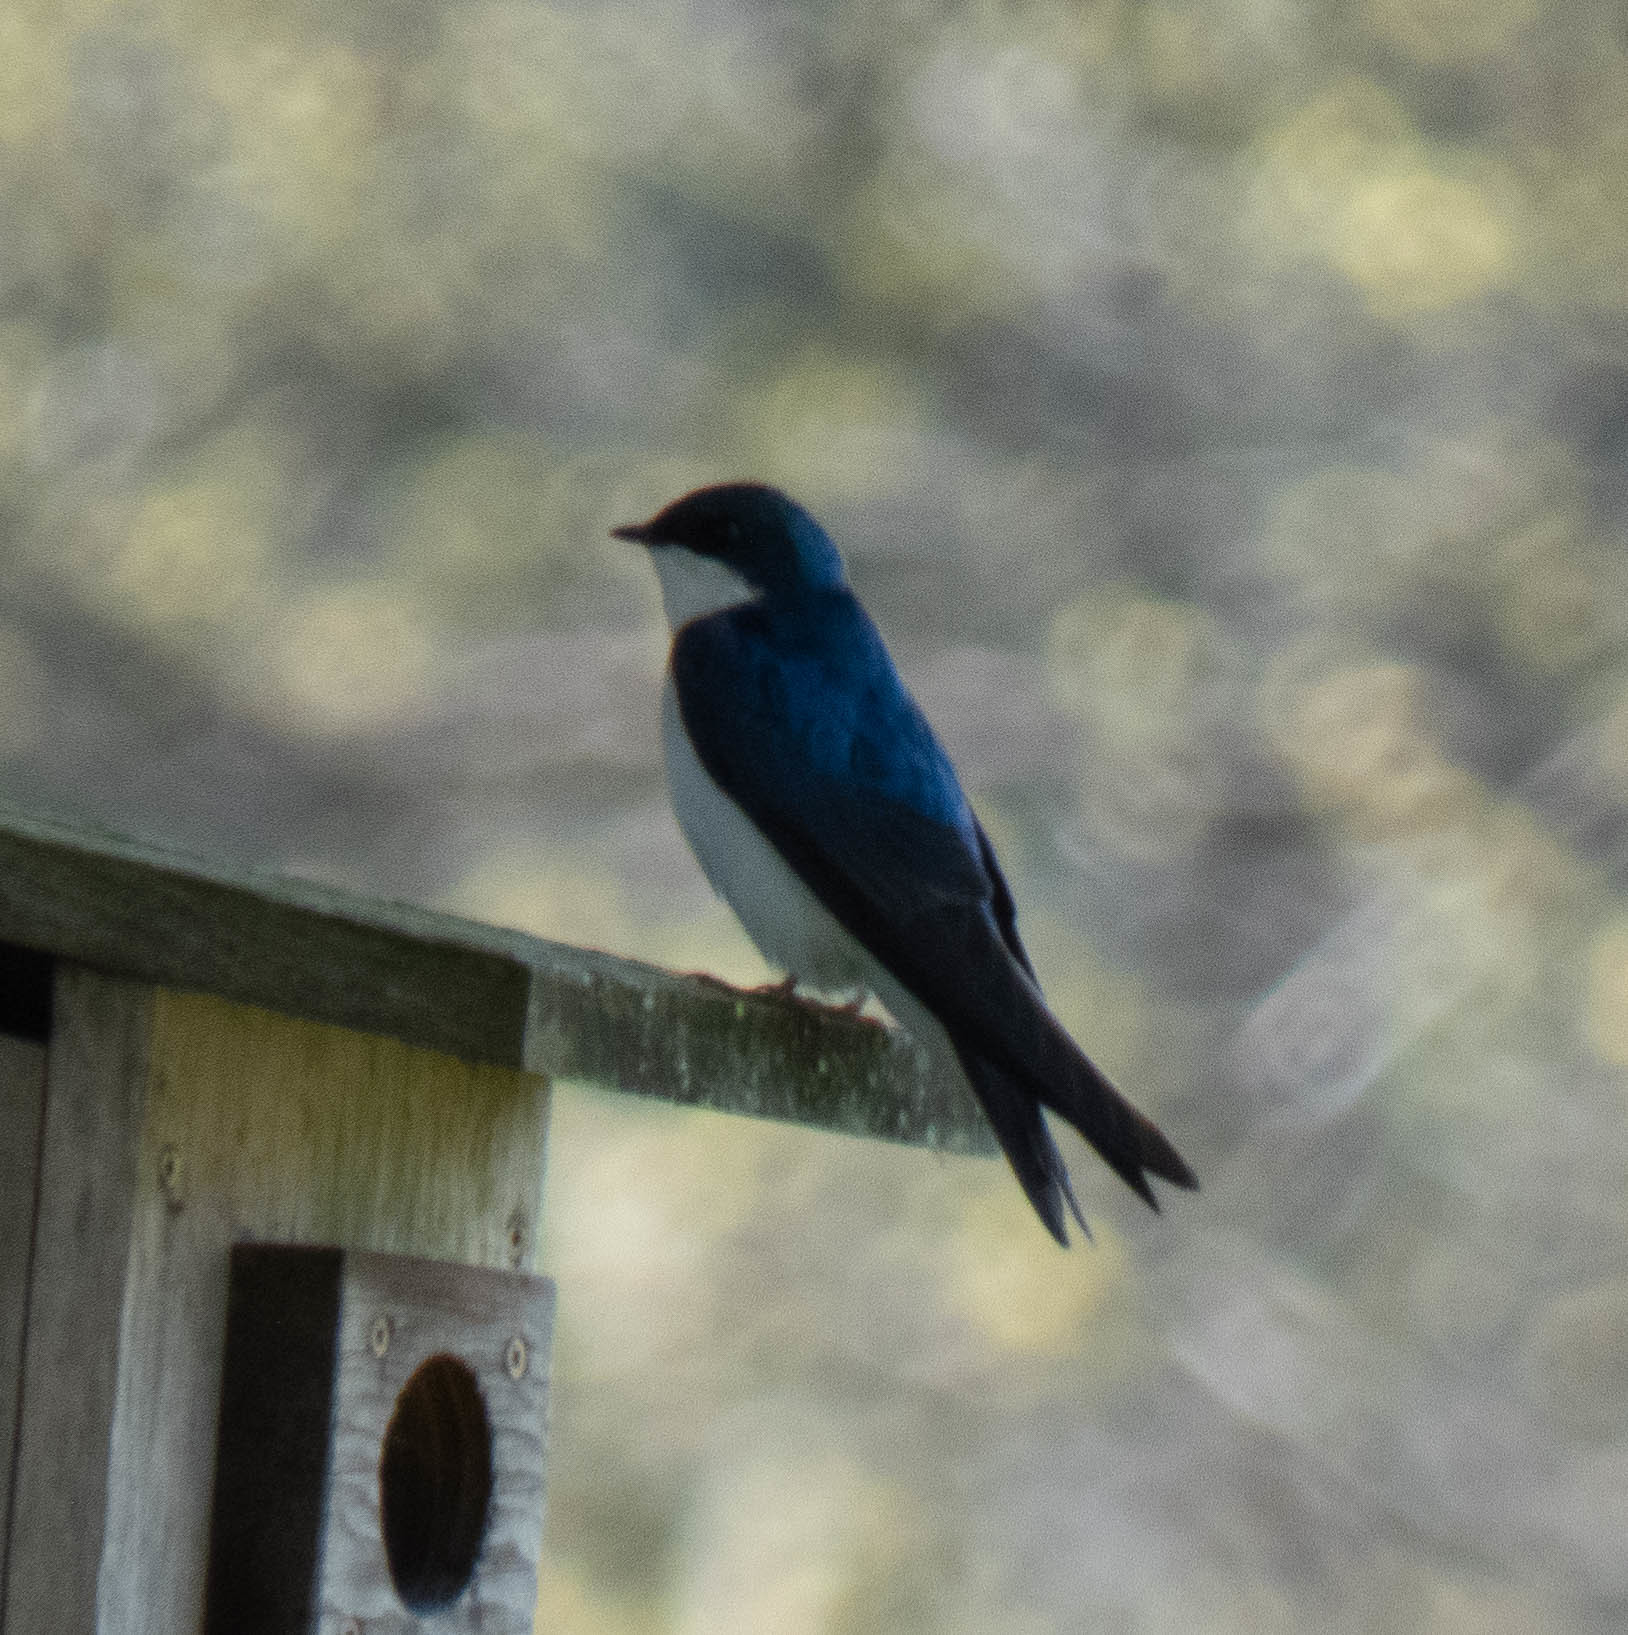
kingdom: Animalia
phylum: Chordata
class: Aves
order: Passeriformes
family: Hirundinidae
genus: Tachycineta
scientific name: Tachycineta bicolor
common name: Tree swallow
